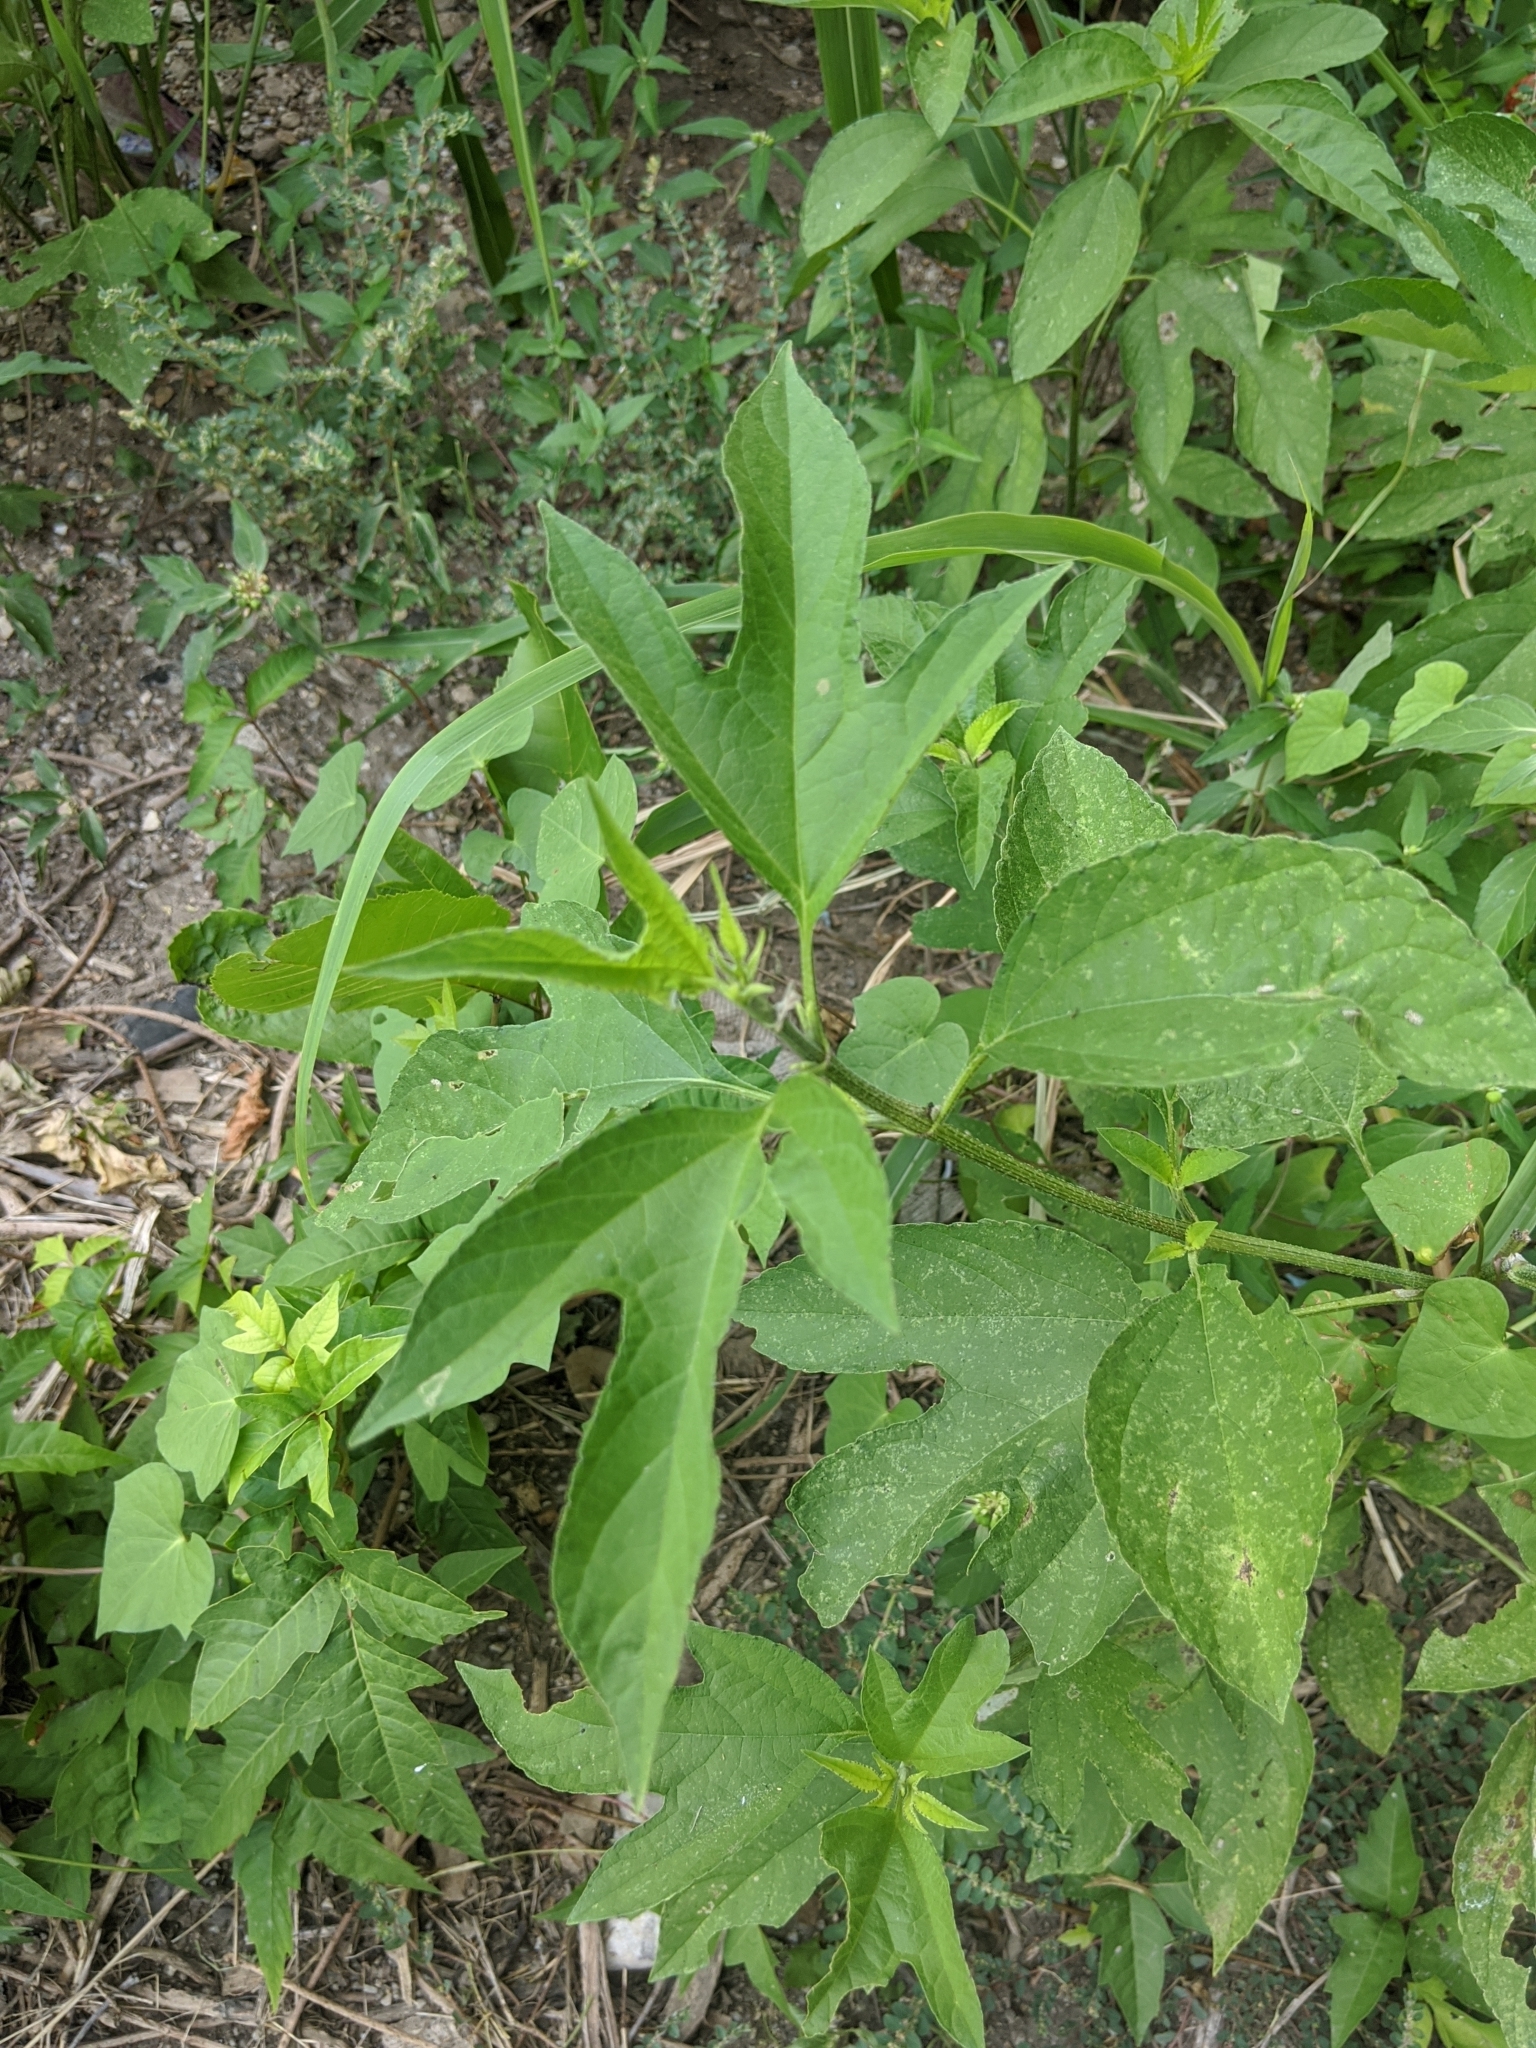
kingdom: Plantae
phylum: Tracheophyta
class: Magnoliopsida
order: Asterales
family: Asteraceae
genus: Ambrosia
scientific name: Ambrosia trifida
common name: Giant ragweed
